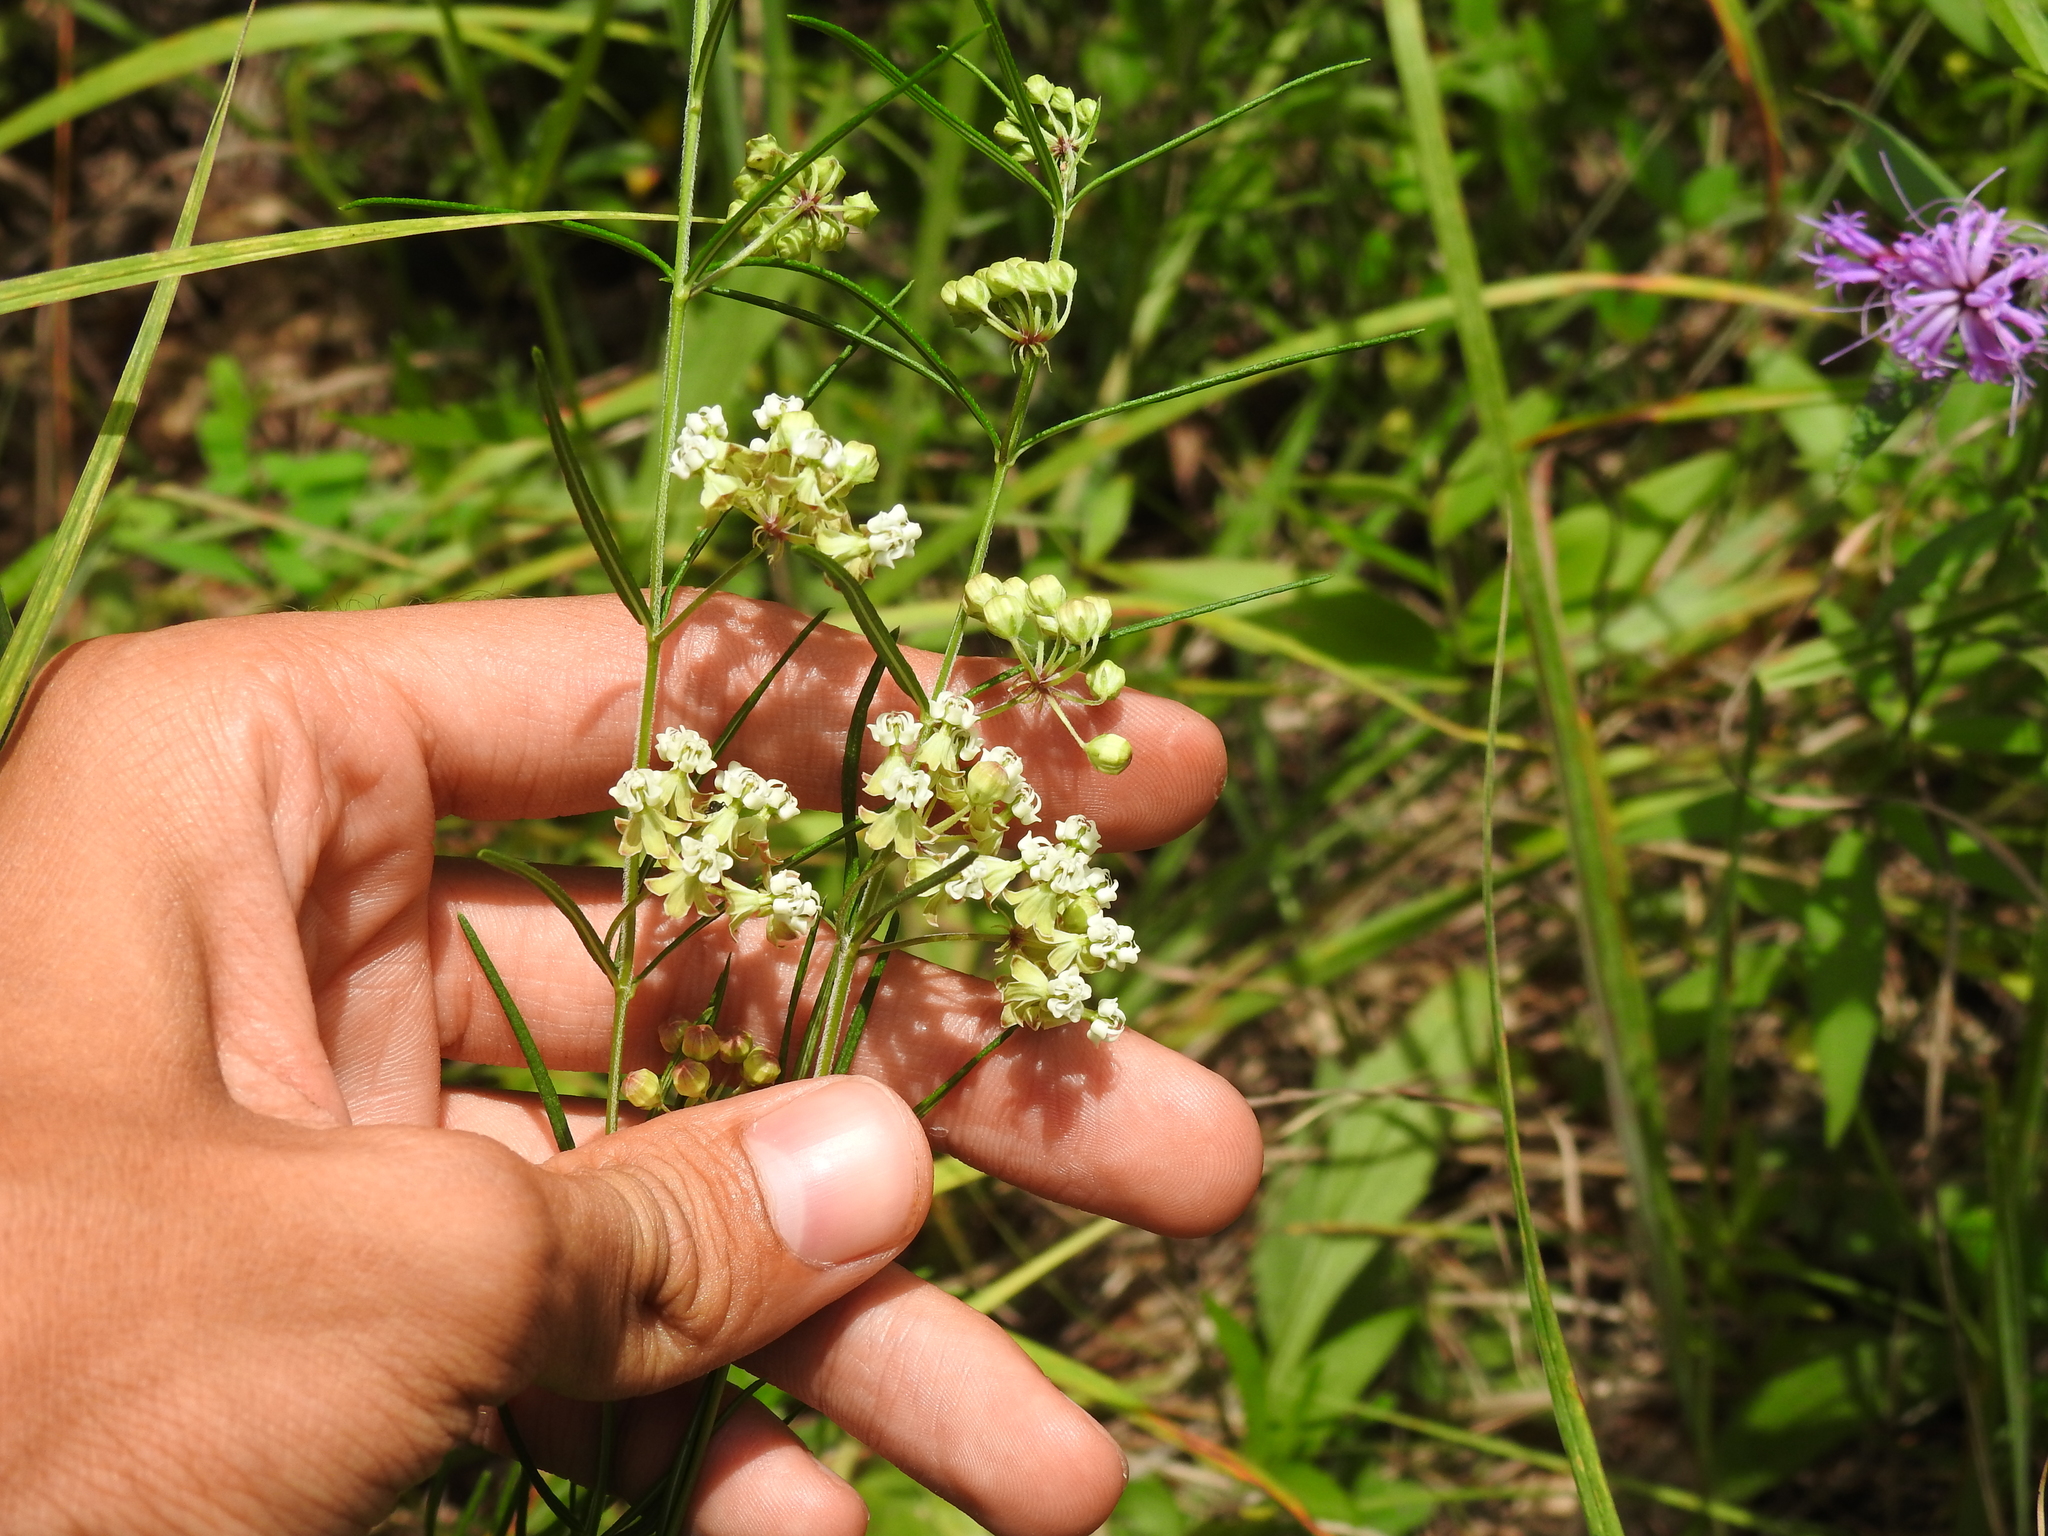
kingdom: Plantae
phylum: Tracheophyta
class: Magnoliopsida
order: Gentianales
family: Apocynaceae
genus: Asclepias
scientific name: Asclepias verticillata
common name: Eastern whorled milkweed
